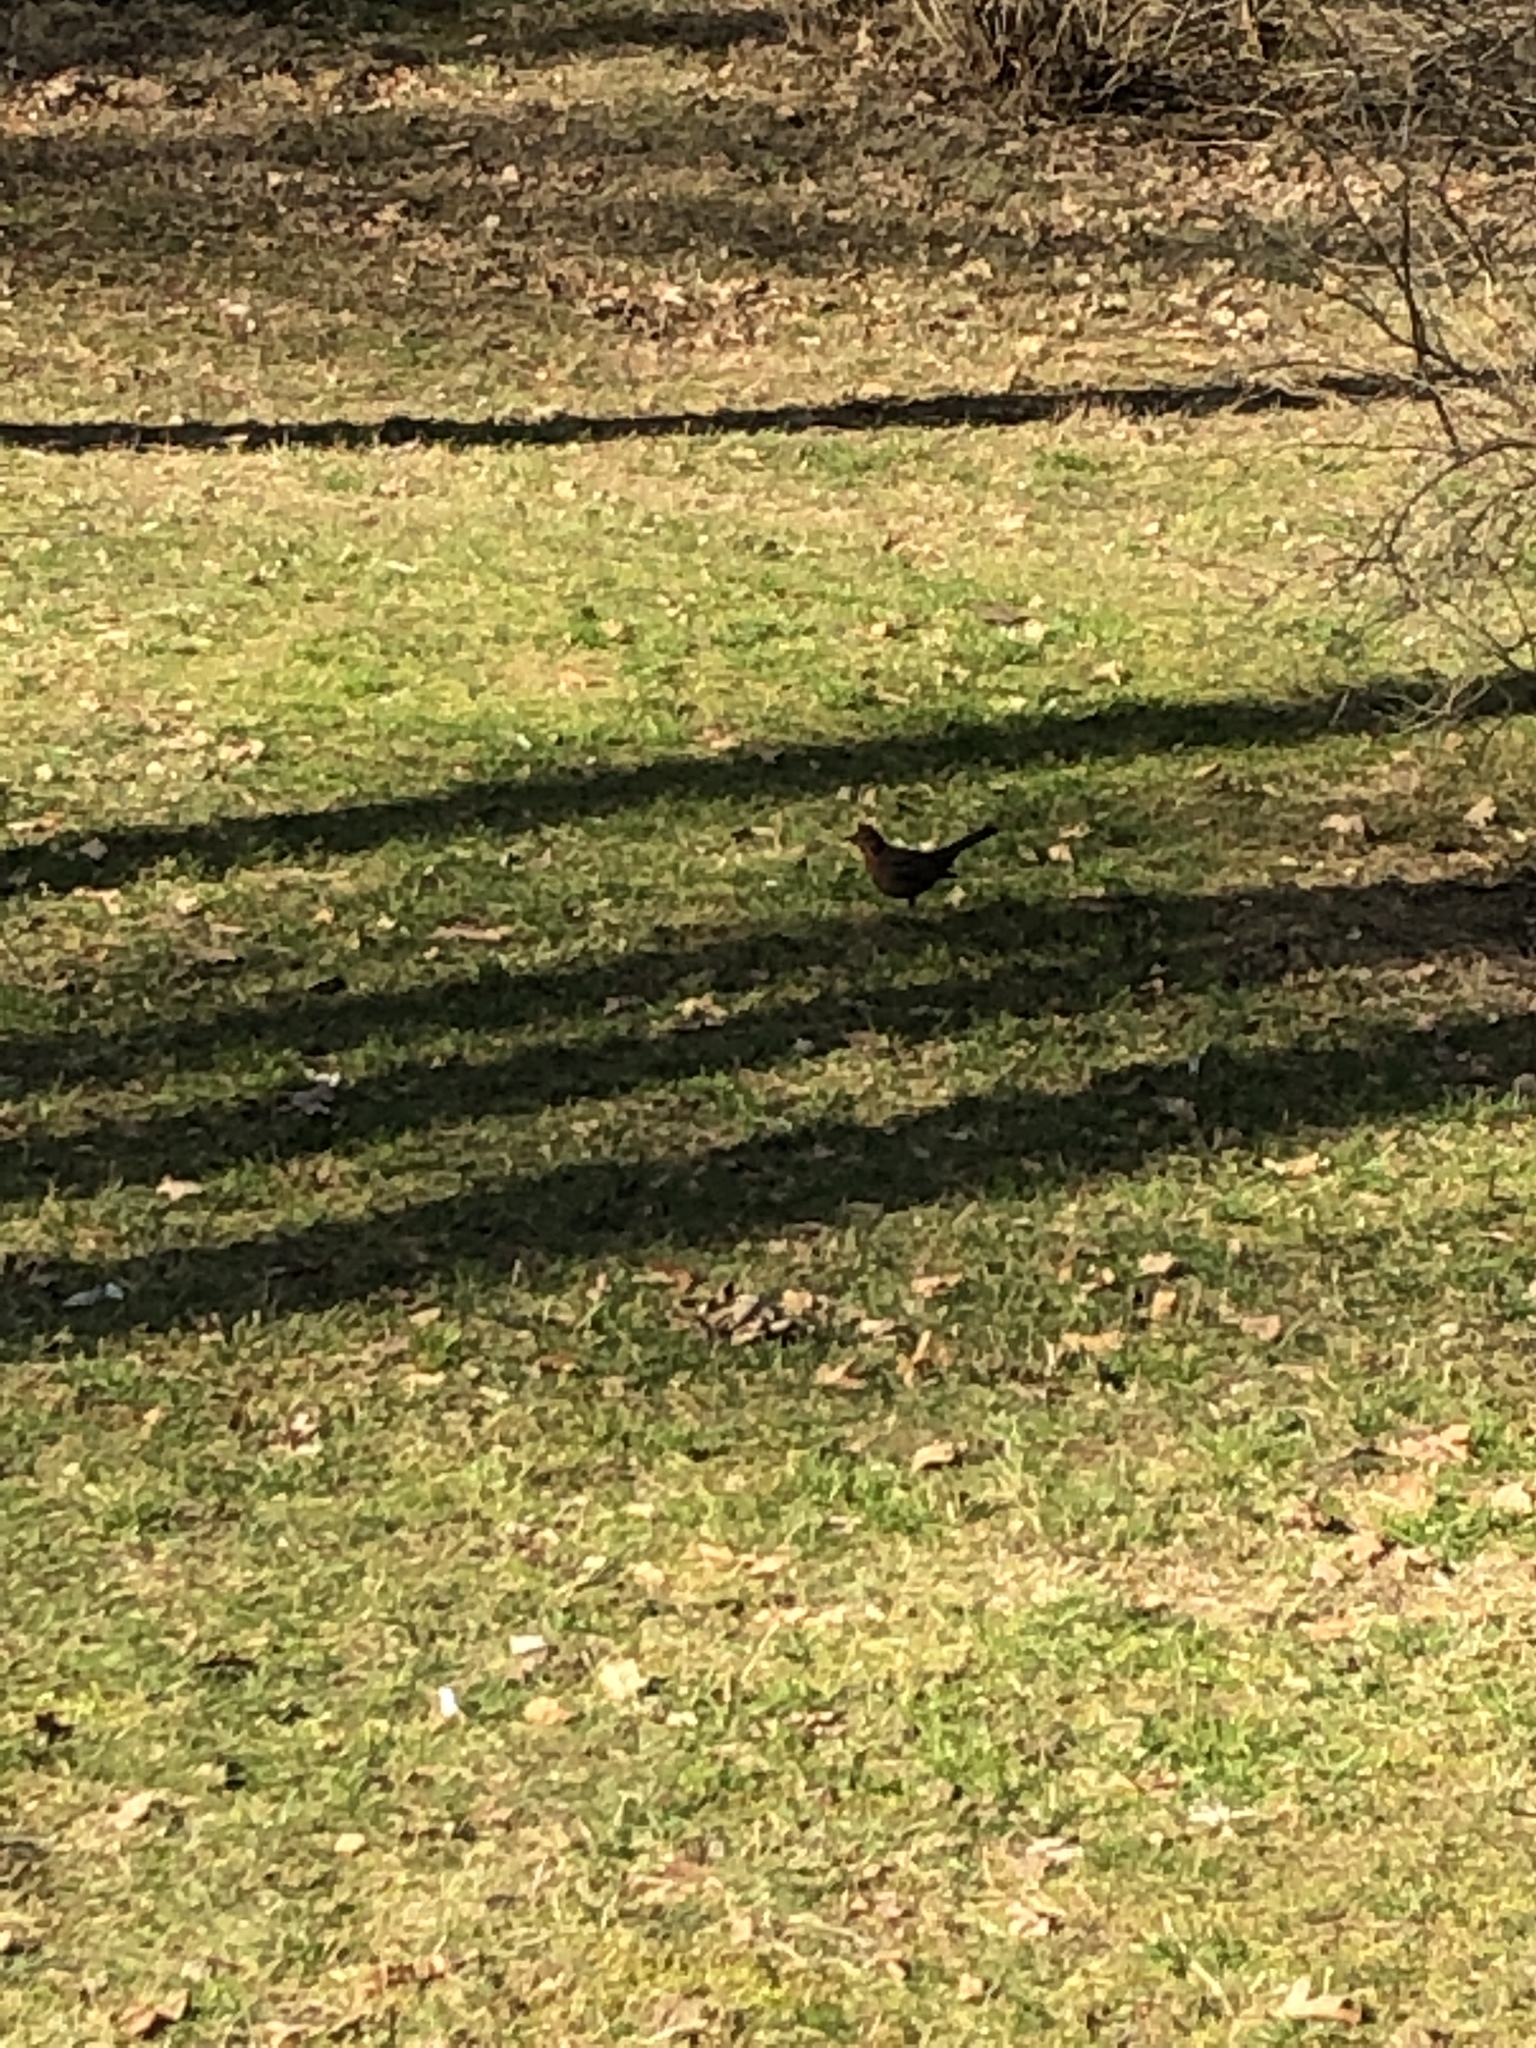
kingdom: Animalia
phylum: Chordata
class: Aves
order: Passeriformes
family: Turdidae
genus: Turdus
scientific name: Turdus merula
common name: Common blackbird
